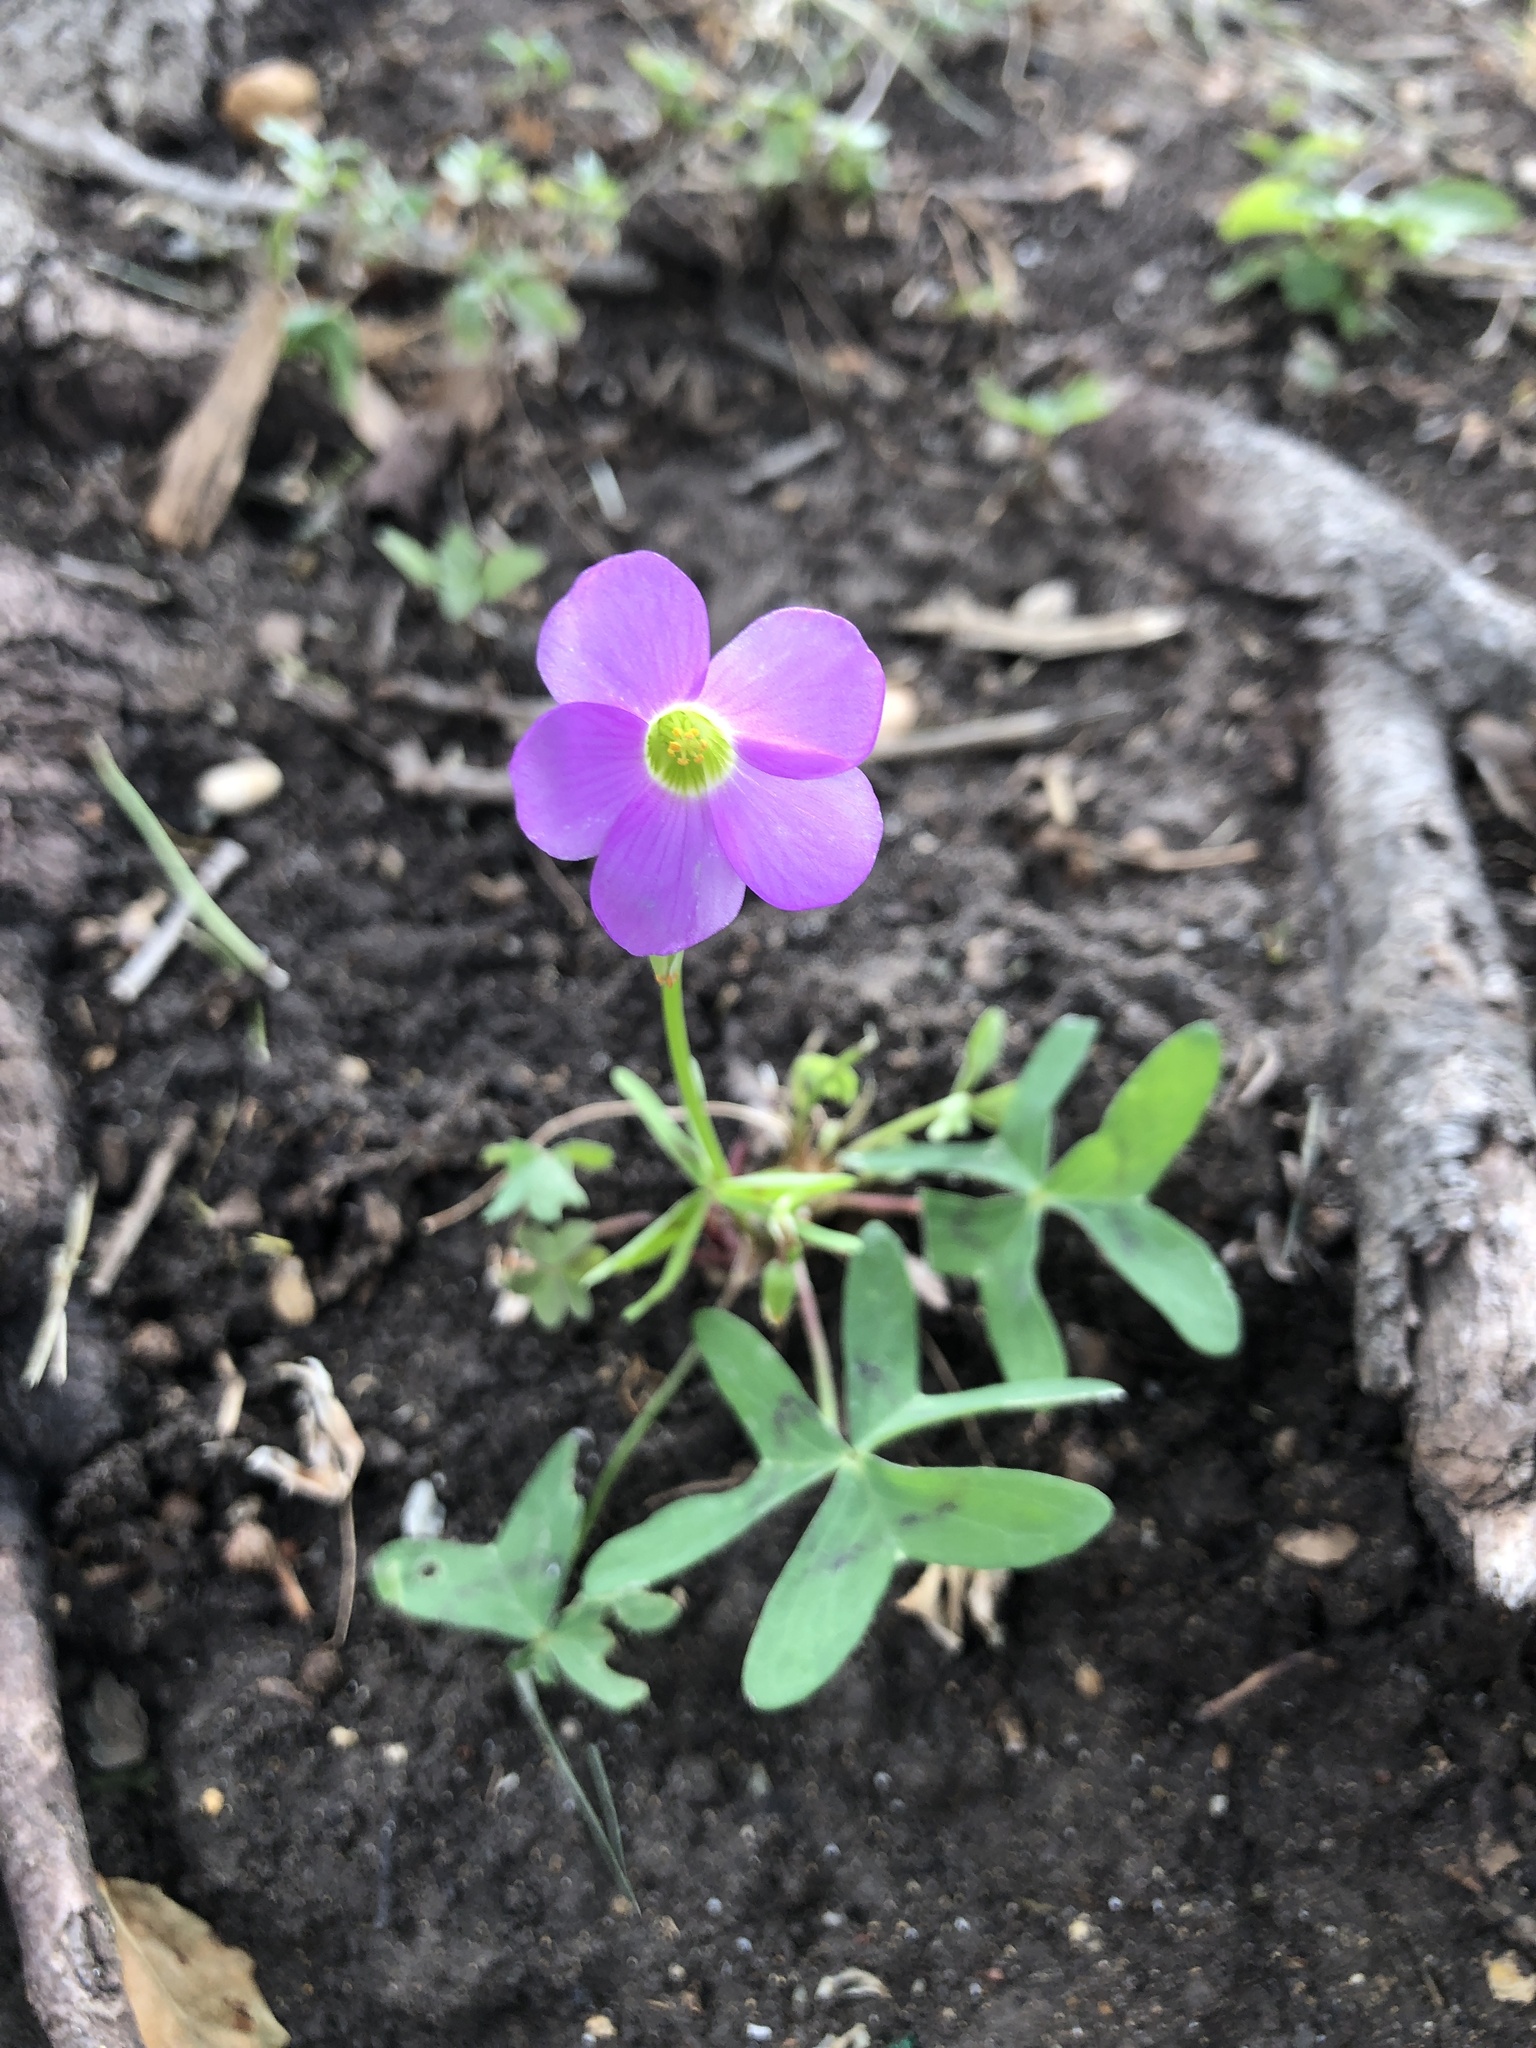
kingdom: Plantae
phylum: Tracheophyta
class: Magnoliopsida
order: Oxalidales
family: Oxalidaceae
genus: Oxalis
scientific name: Oxalis drummondii
